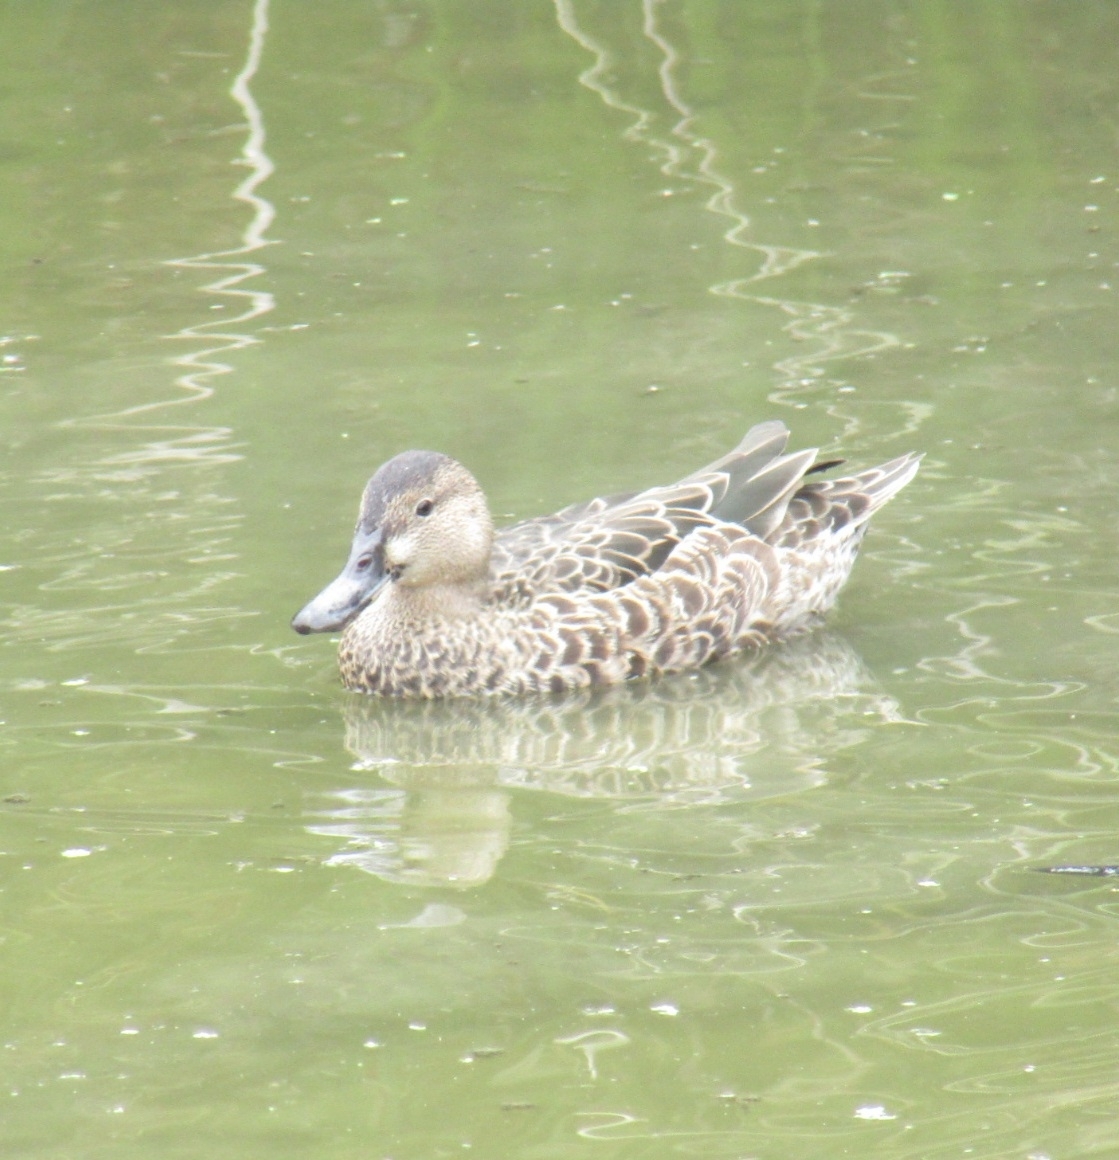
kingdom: Animalia
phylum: Chordata
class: Aves
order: Anseriformes
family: Anatidae
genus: Spatula
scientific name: Spatula cyanoptera
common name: Cinnamon teal
